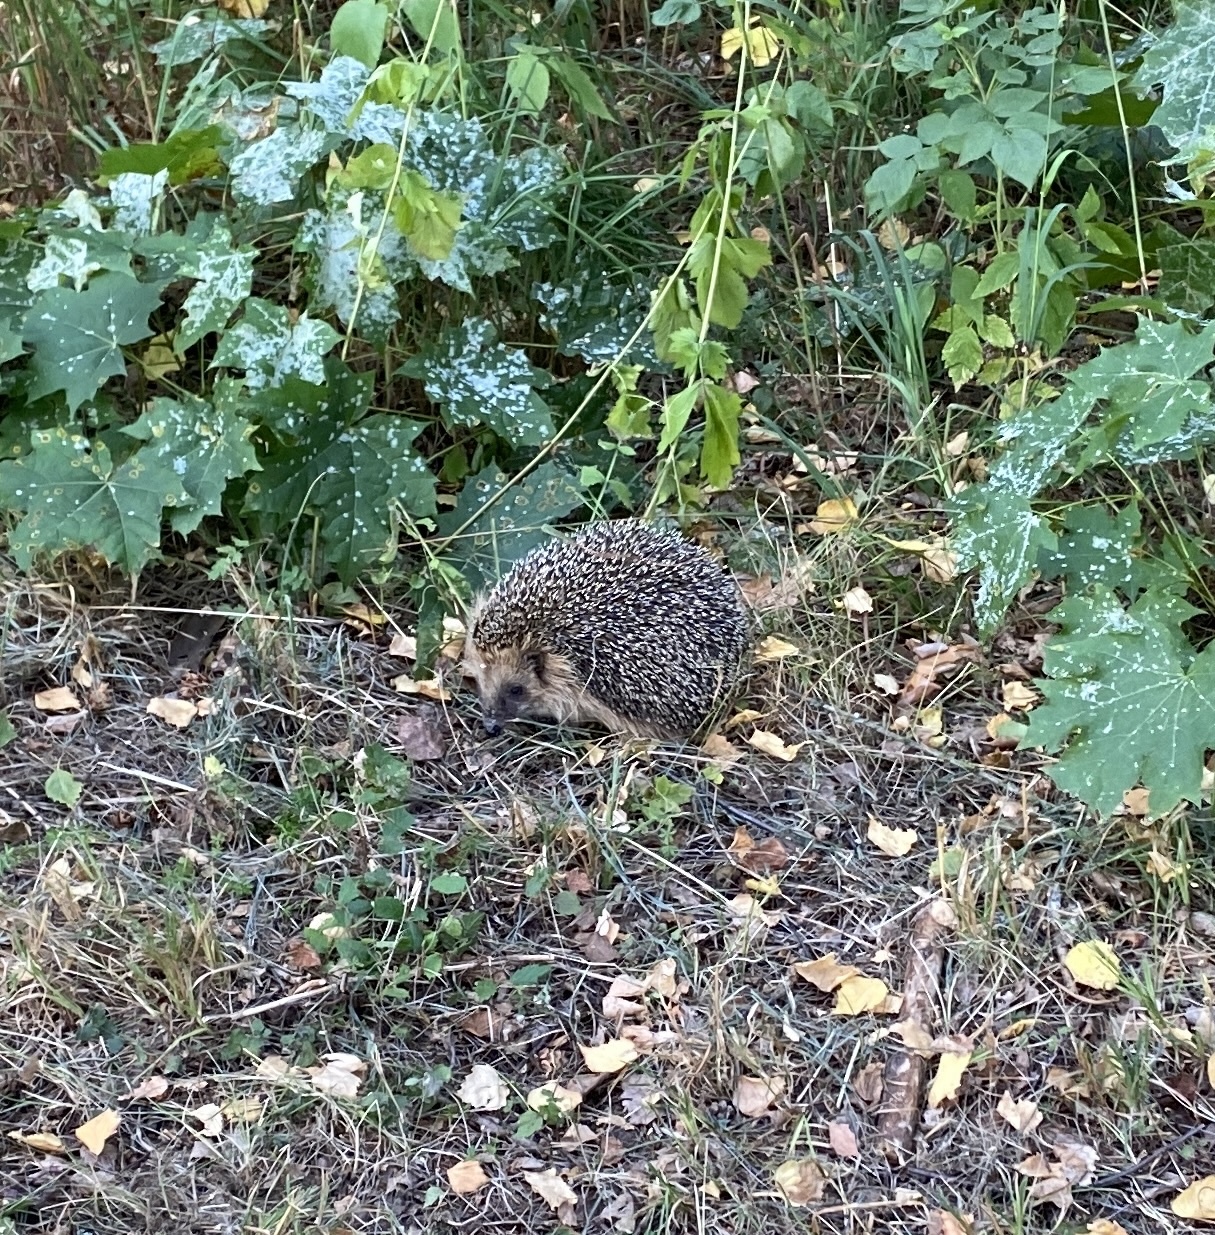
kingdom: Animalia
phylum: Chordata
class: Mammalia
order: Erinaceomorpha
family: Erinaceidae
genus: Erinaceus
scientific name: Erinaceus europaeus
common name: West european hedgehog
